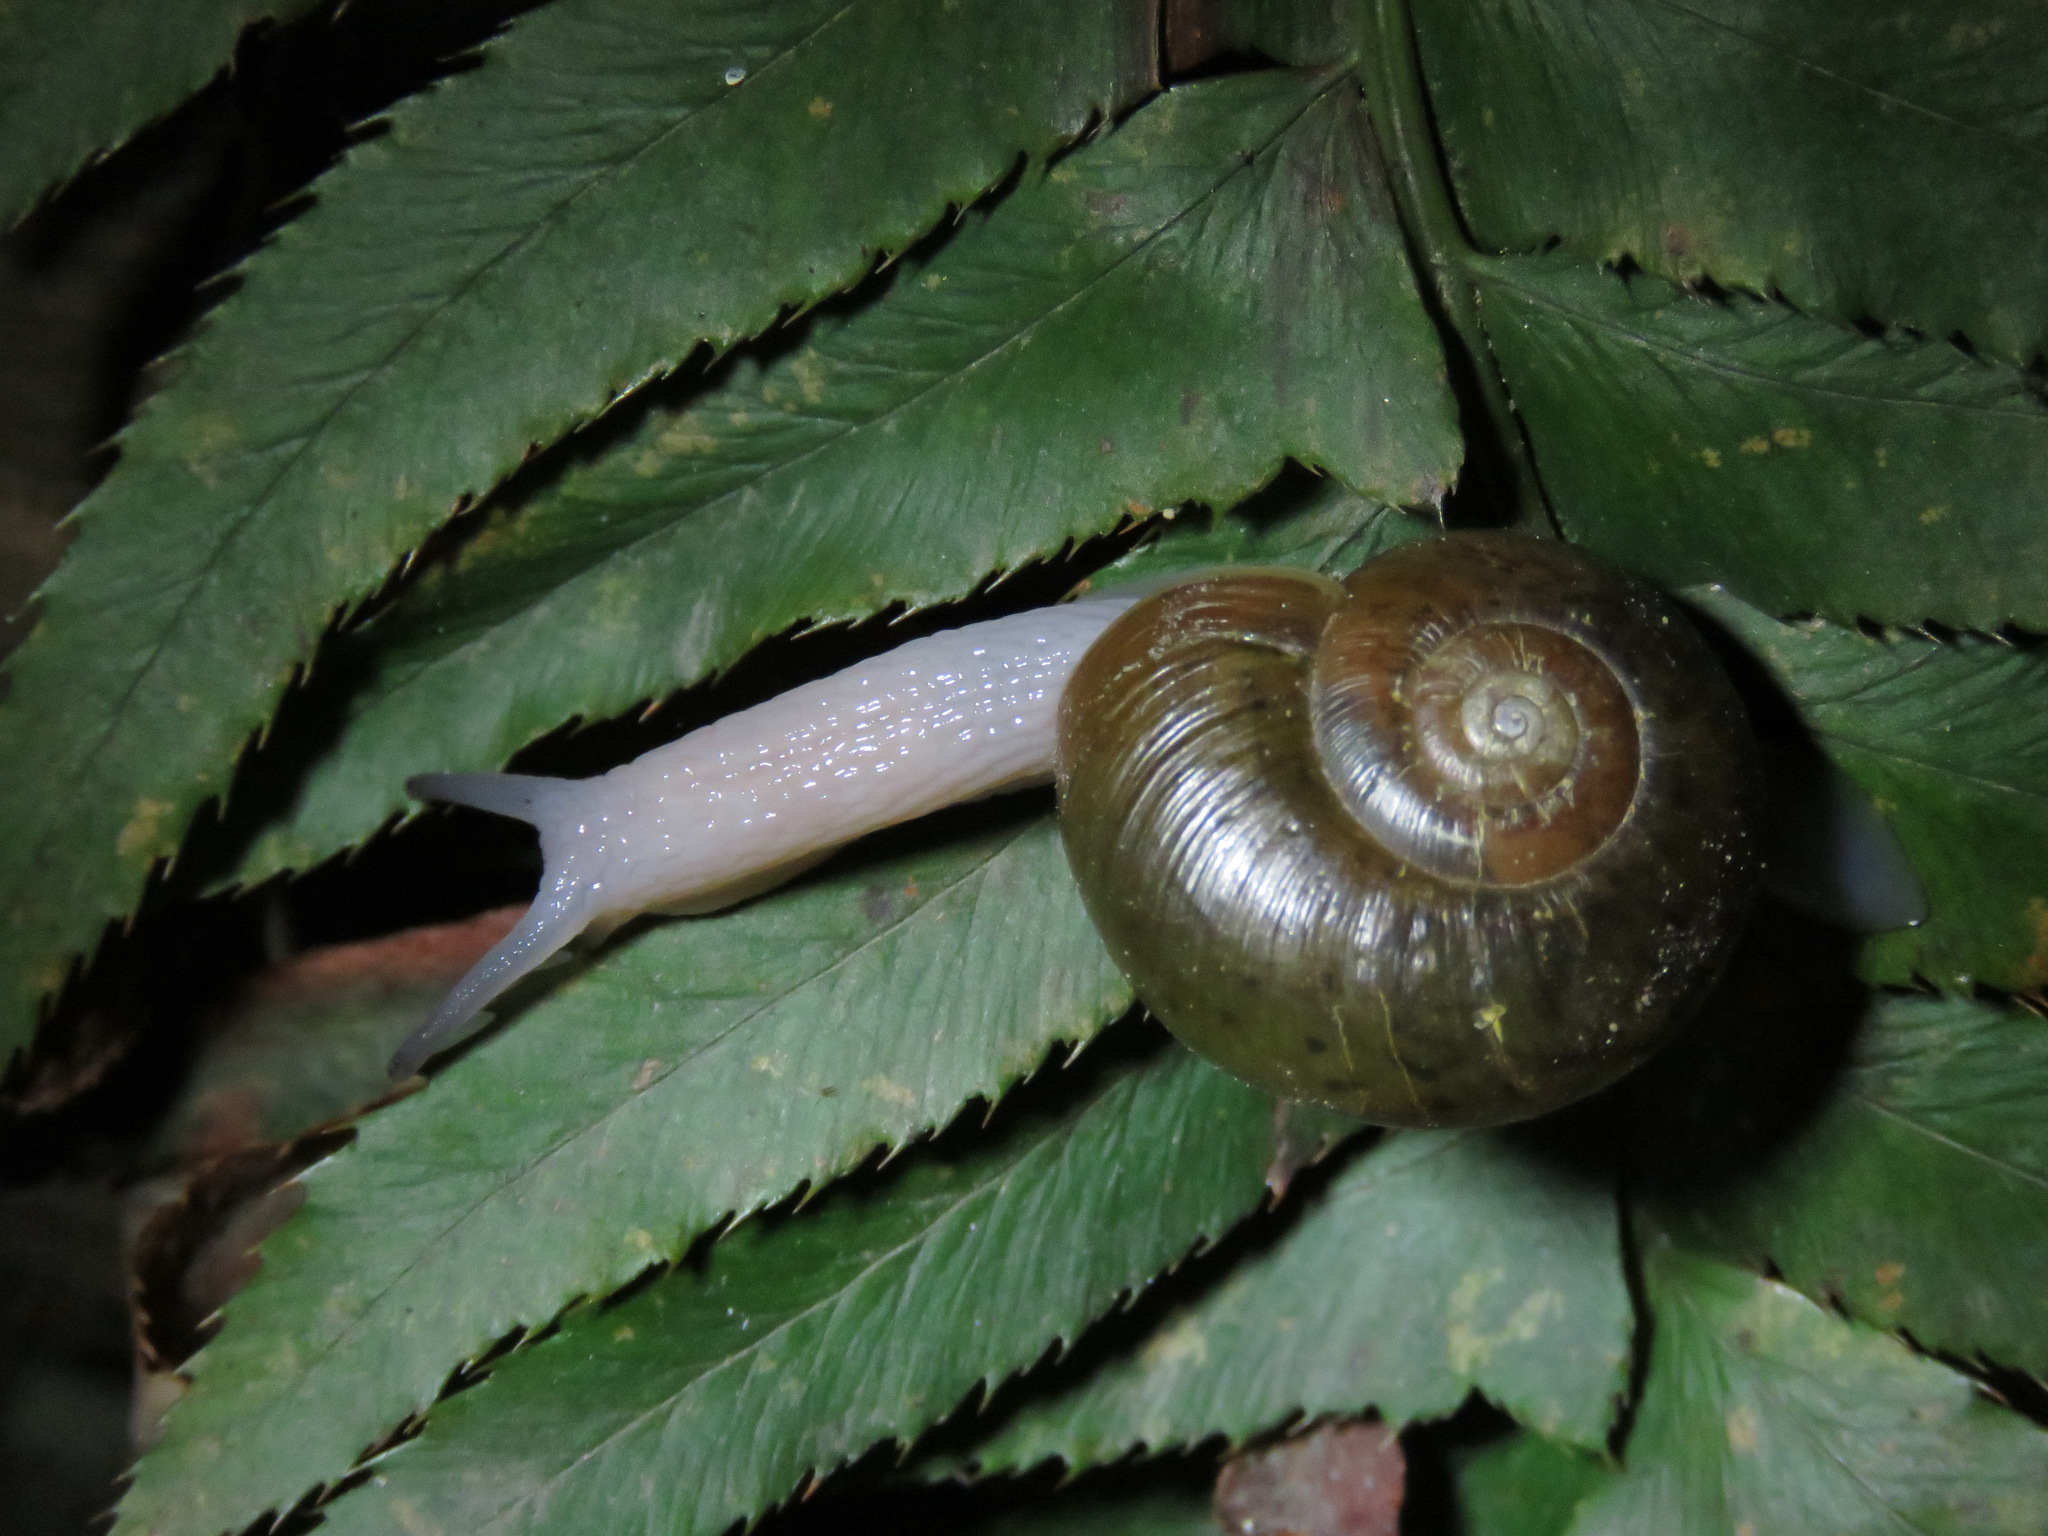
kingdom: Animalia
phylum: Mollusca
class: Gastropoda
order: Stylommatophora
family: Haplotrematidae
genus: Haplotrema
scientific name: Haplotrema vancouverense
